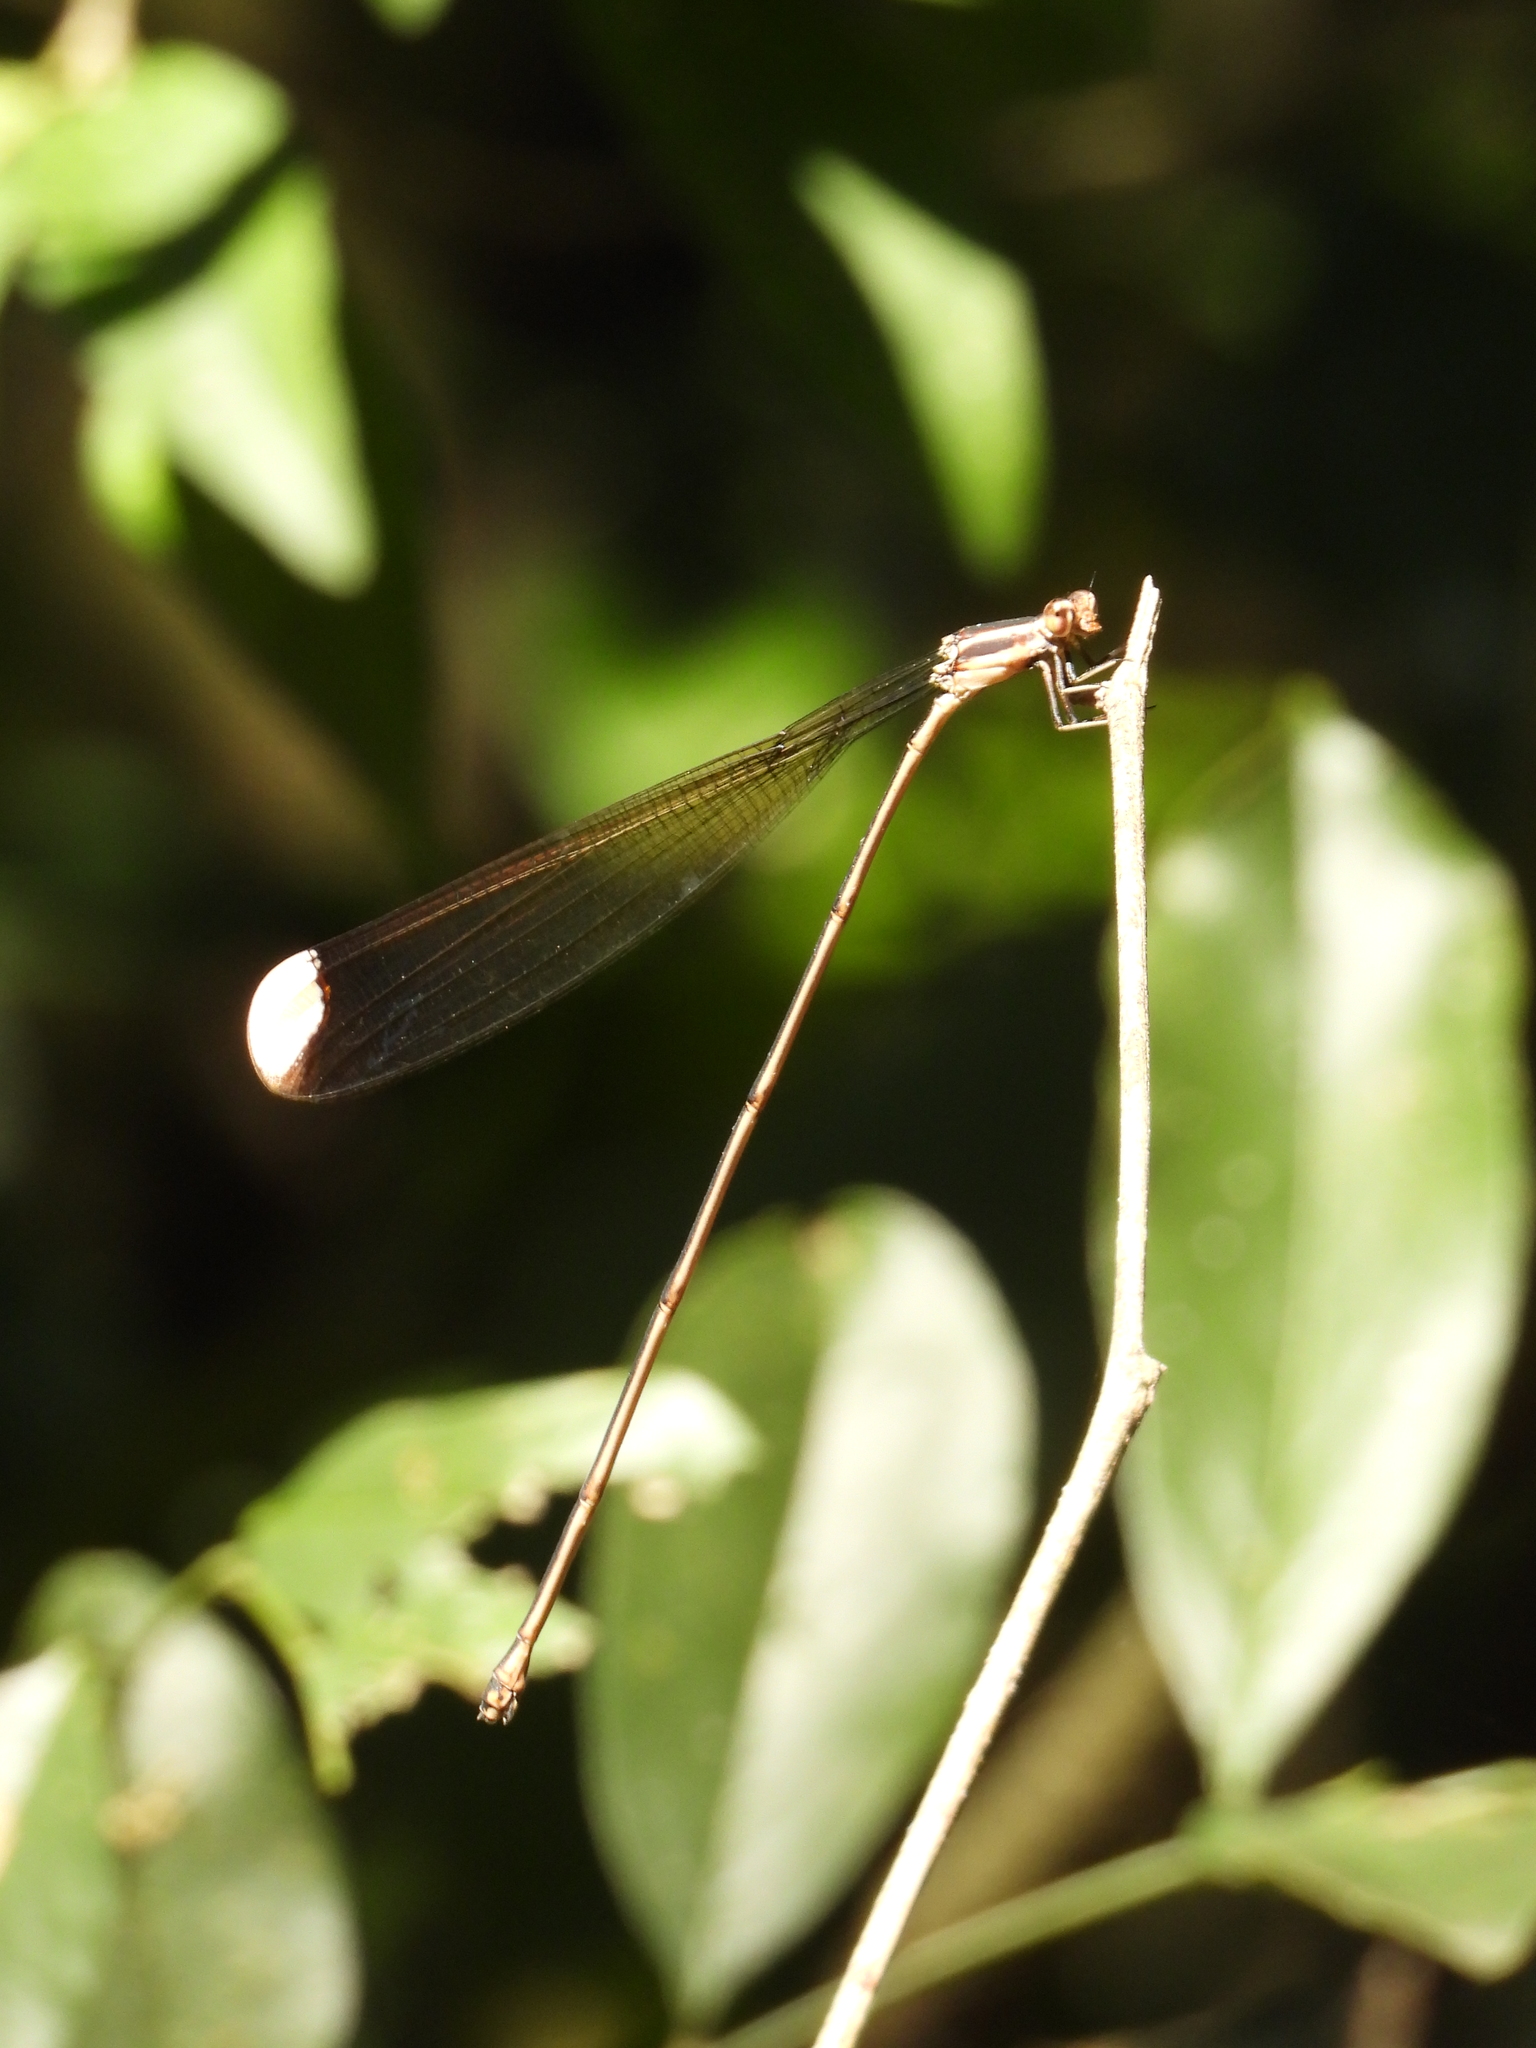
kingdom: Animalia
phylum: Arthropoda
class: Insecta
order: Odonata
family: Coenagrionidae
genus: Mecistogaster
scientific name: Mecistogaster ornata
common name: Ornate helicopter
